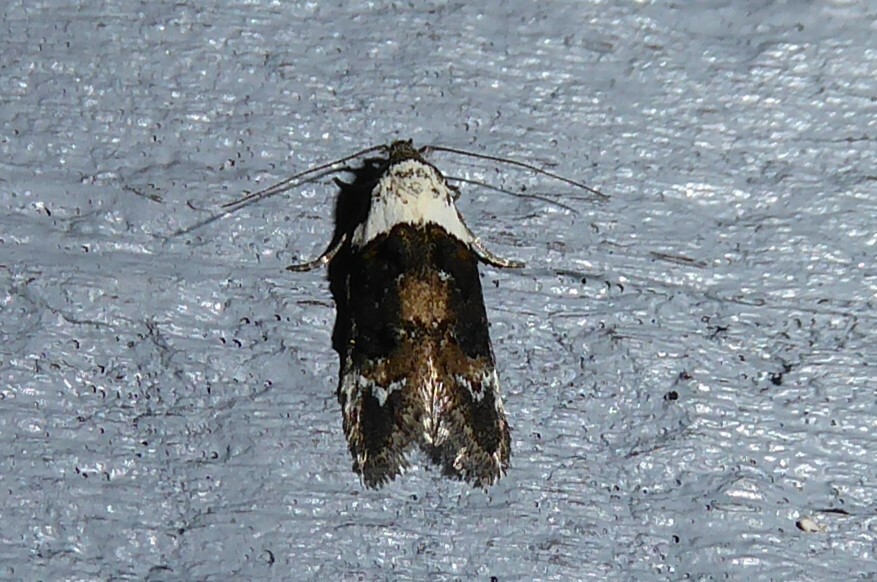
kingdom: Animalia
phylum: Arthropoda
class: Insecta
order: Lepidoptera
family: Oecophoridae
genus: Trachypepla
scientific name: Trachypepla conspicuella
